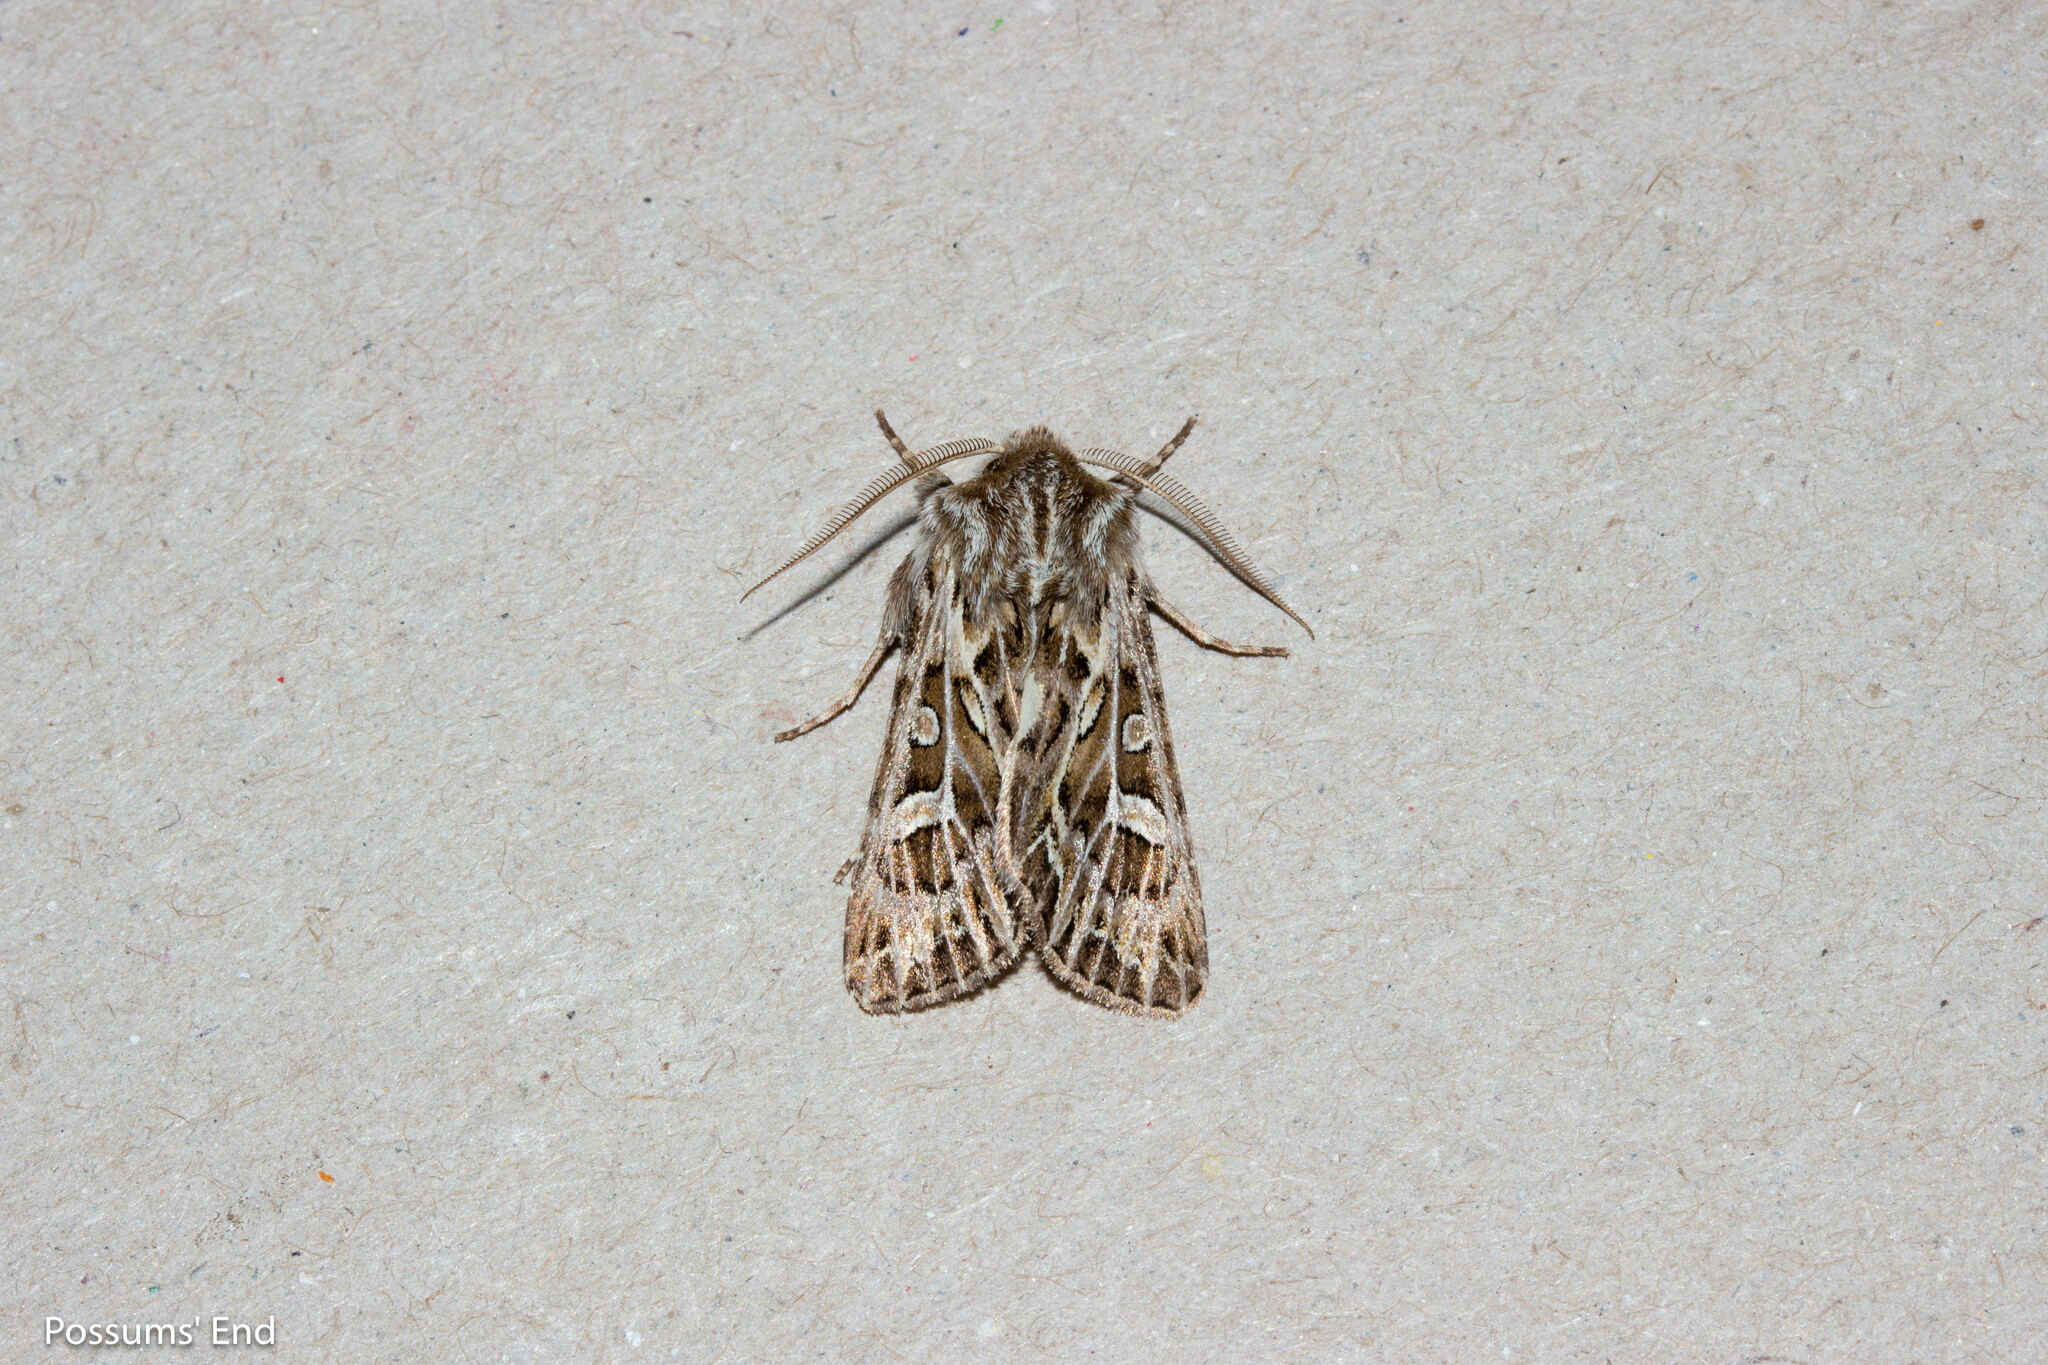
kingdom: Animalia
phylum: Arthropoda
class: Insecta
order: Lepidoptera
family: Noctuidae
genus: Ichneutica
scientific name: Ichneutica
